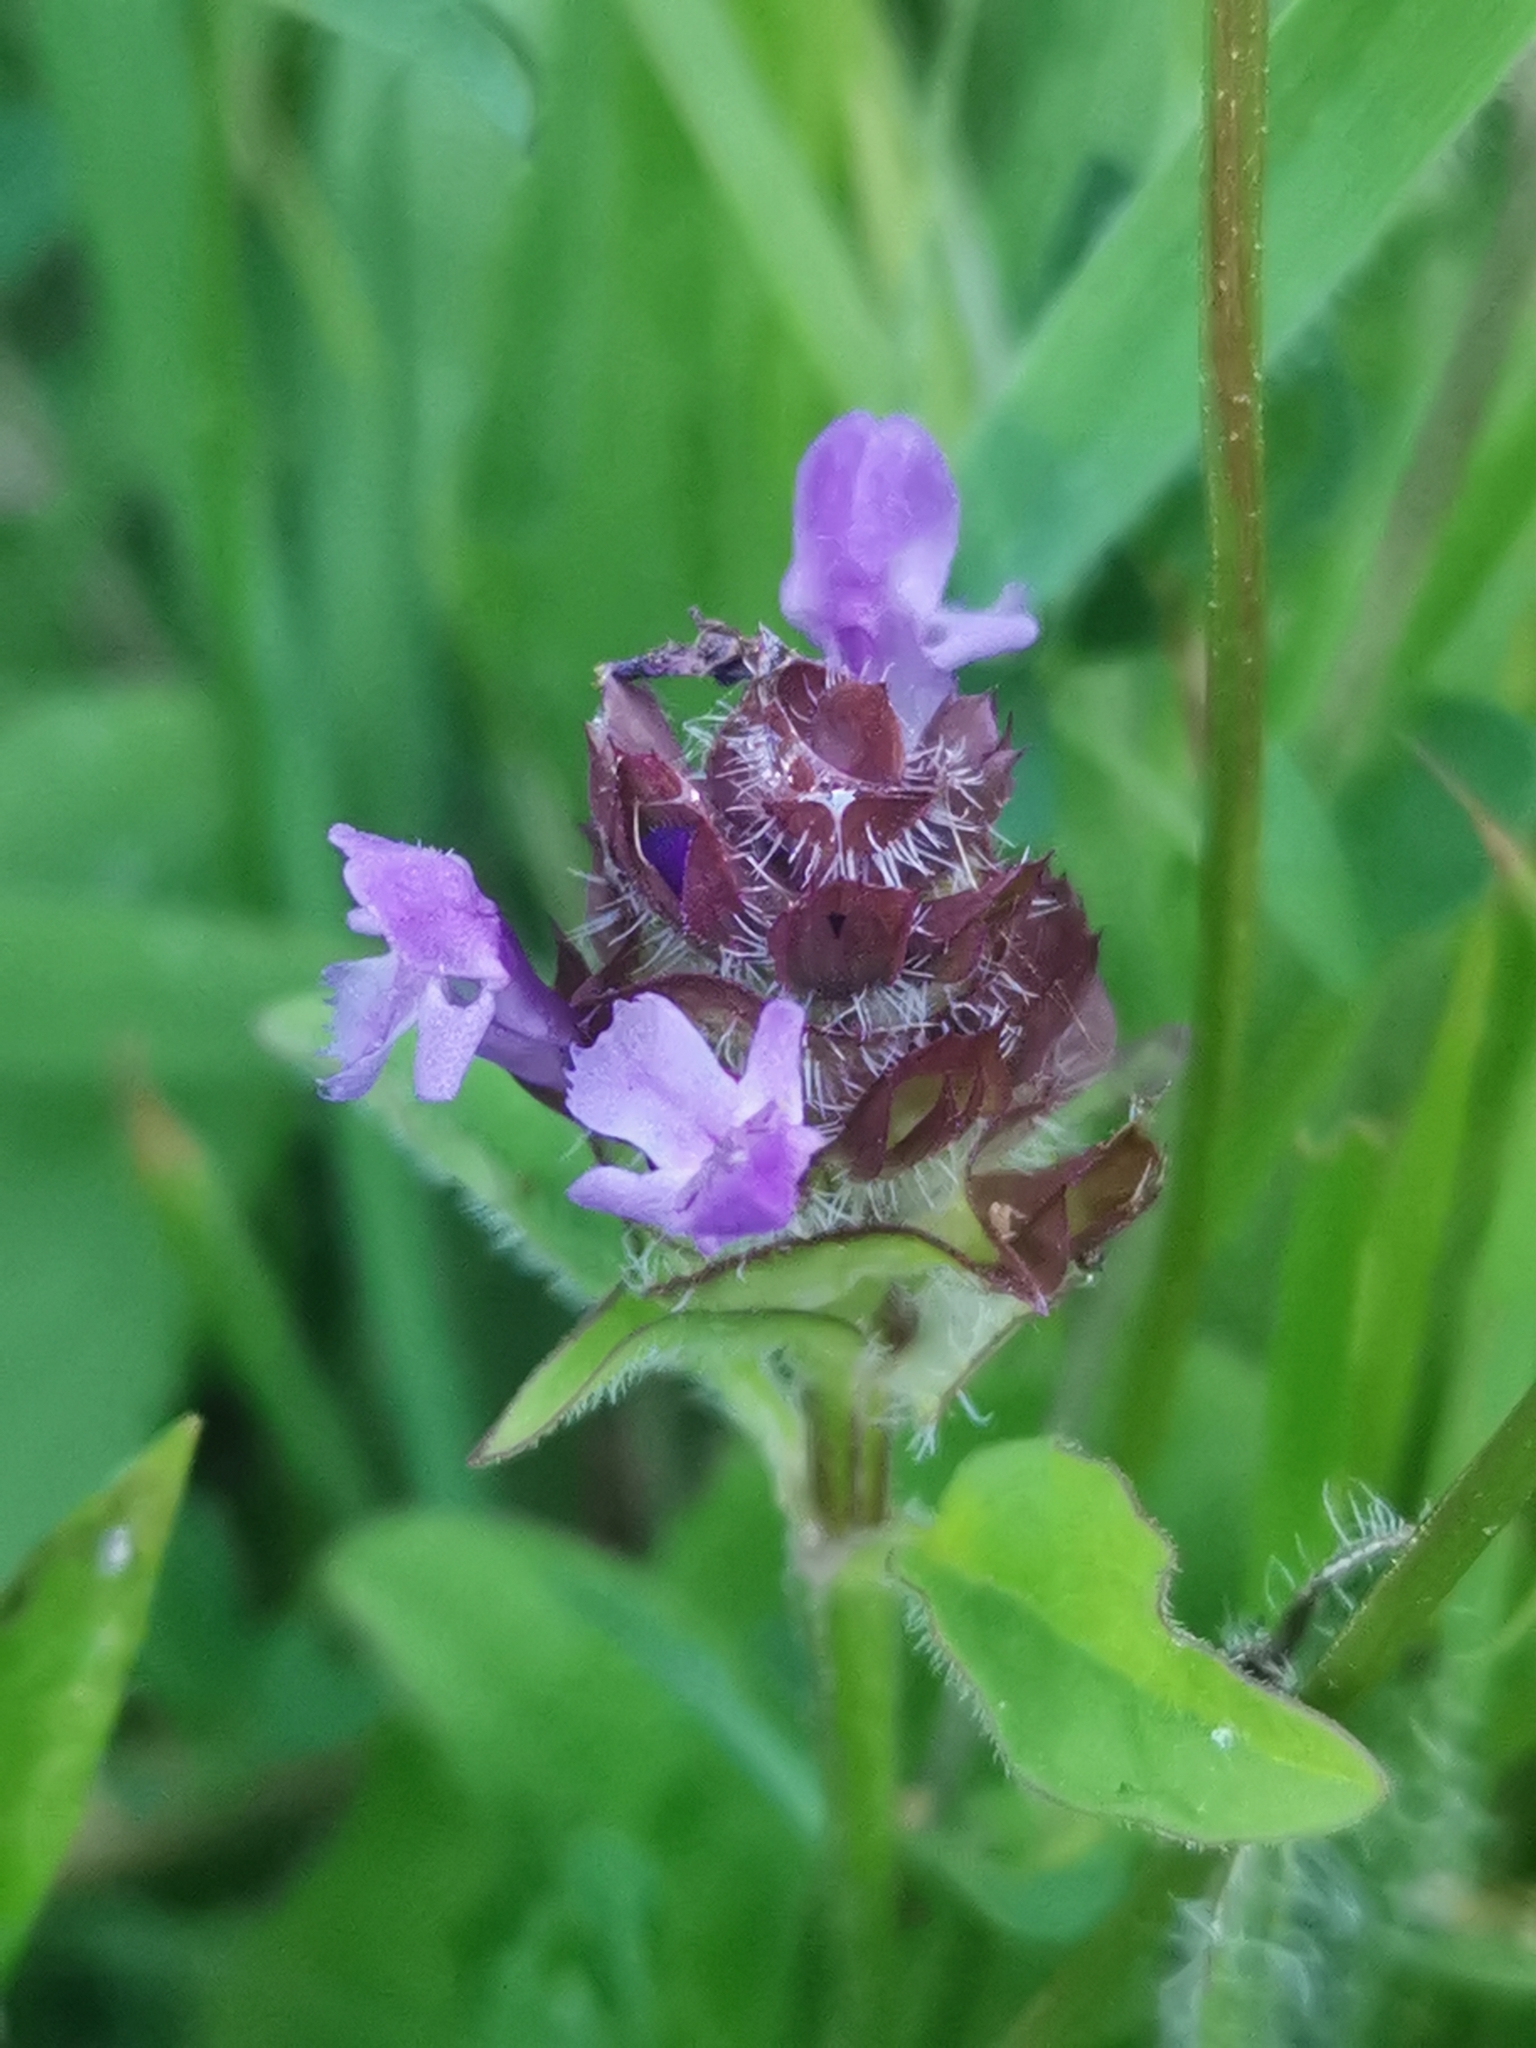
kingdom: Plantae
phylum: Tracheophyta
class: Magnoliopsida
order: Lamiales
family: Lamiaceae
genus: Prunella
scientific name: Prunella vulgaris
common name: Heal-all
